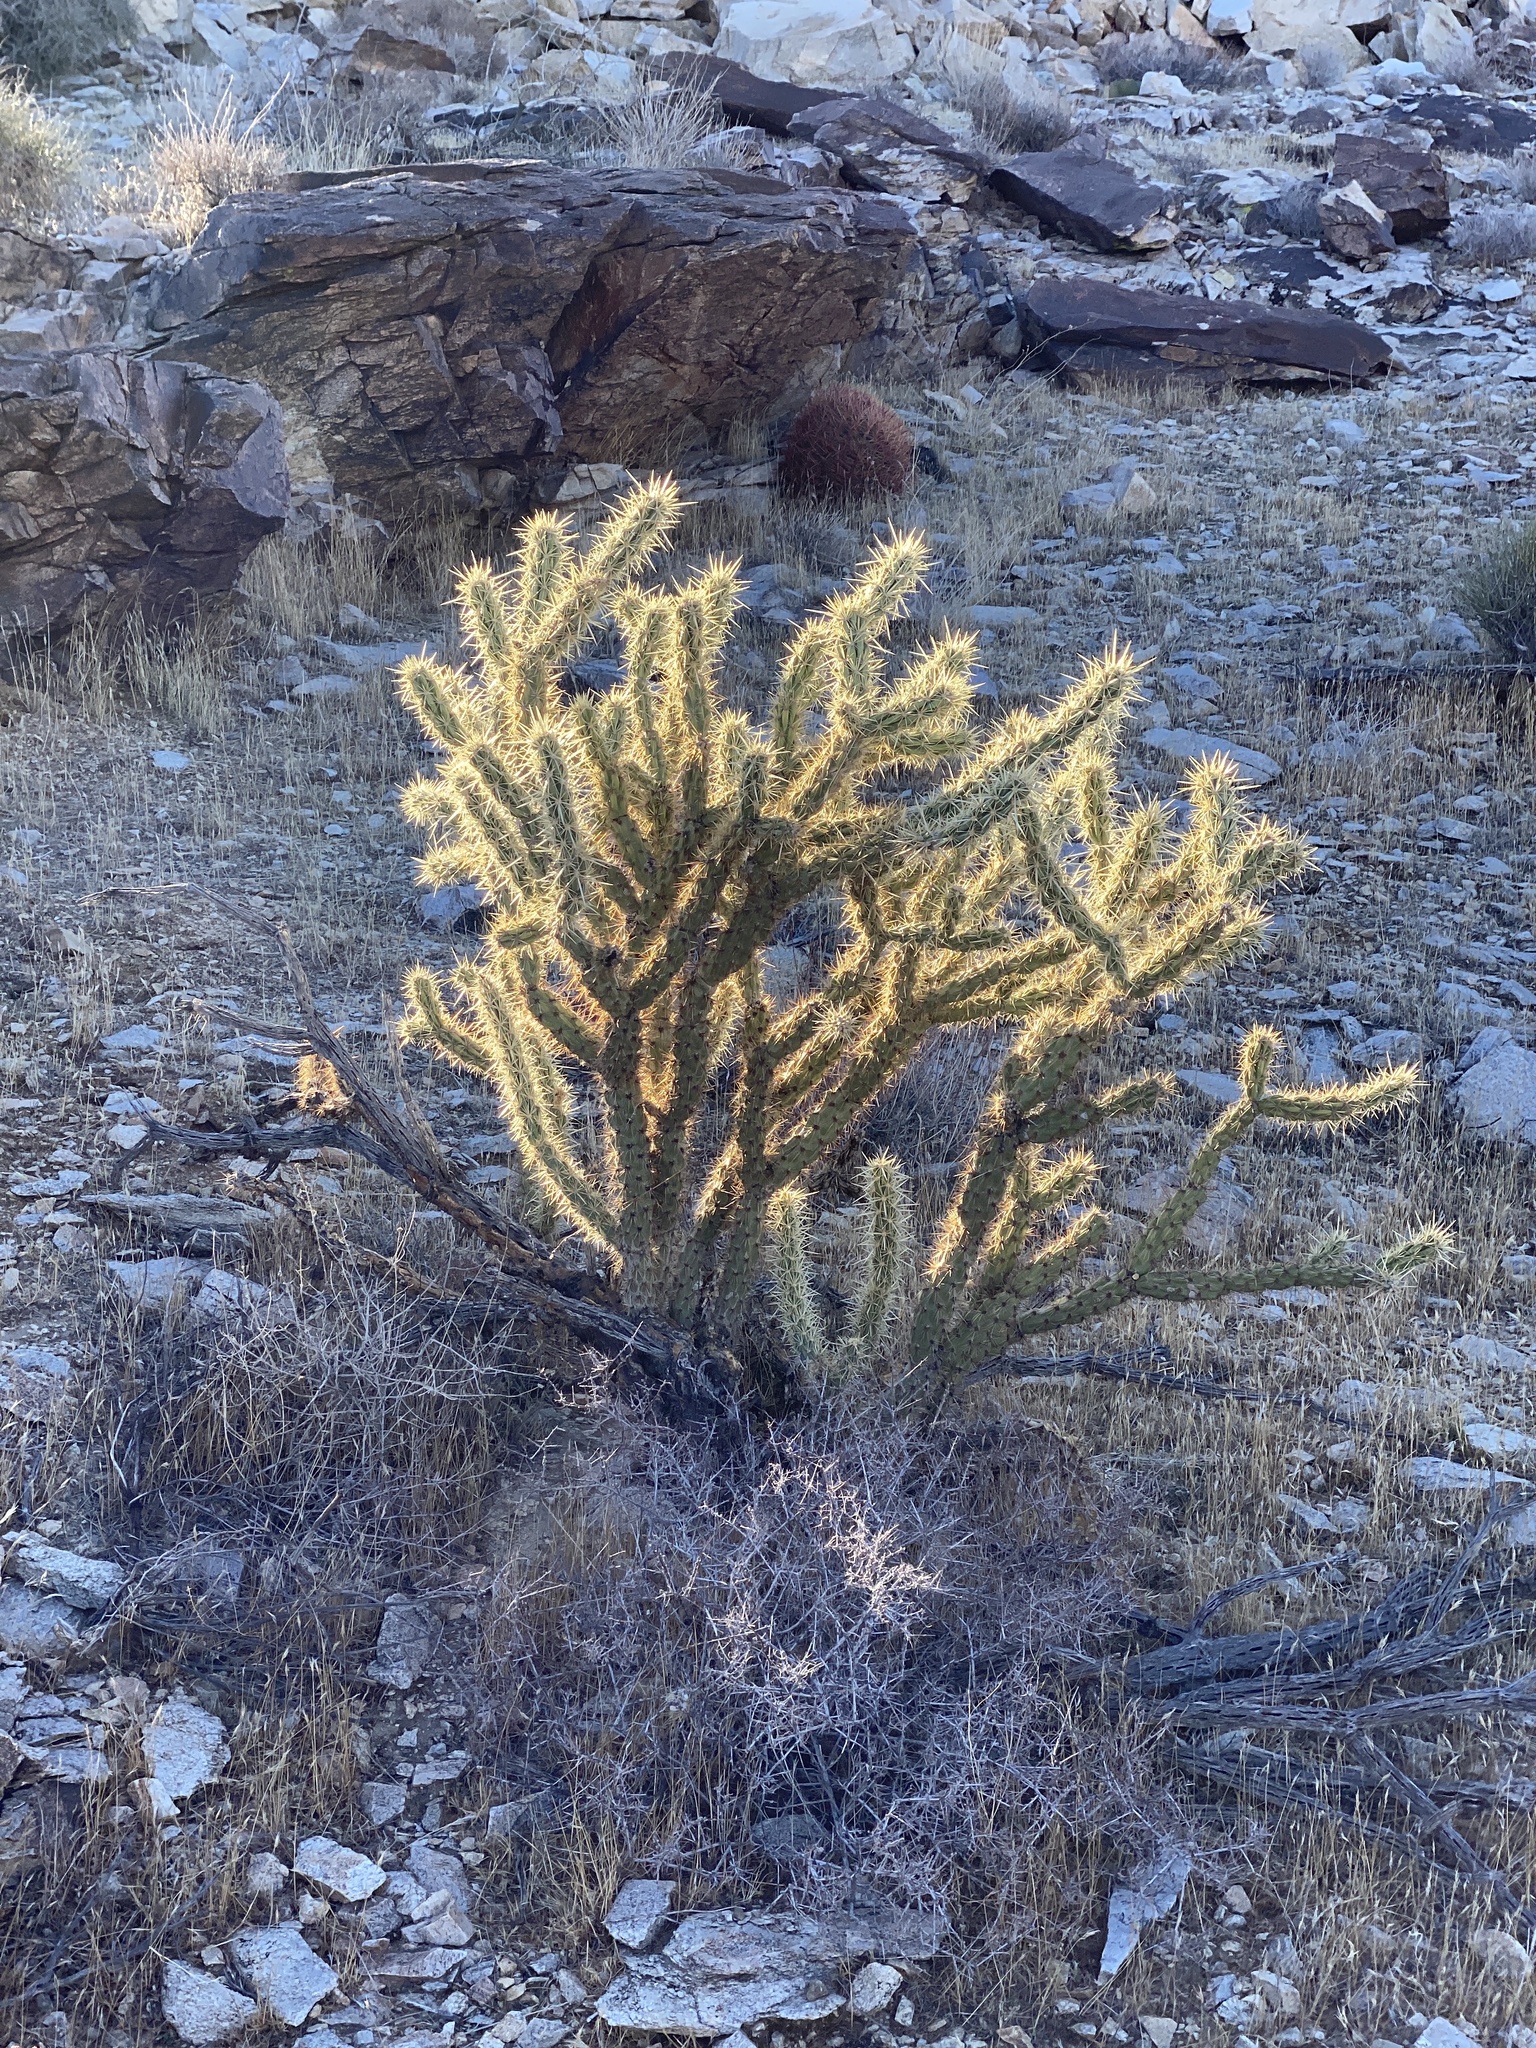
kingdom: Plantae
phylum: Tracheophyta
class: Magnoliopsida
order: Caryophyllales
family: Cactaceae
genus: Cylindropuntia
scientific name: Cylindropuntia acanthocarpa
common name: Buckhorn cholla
